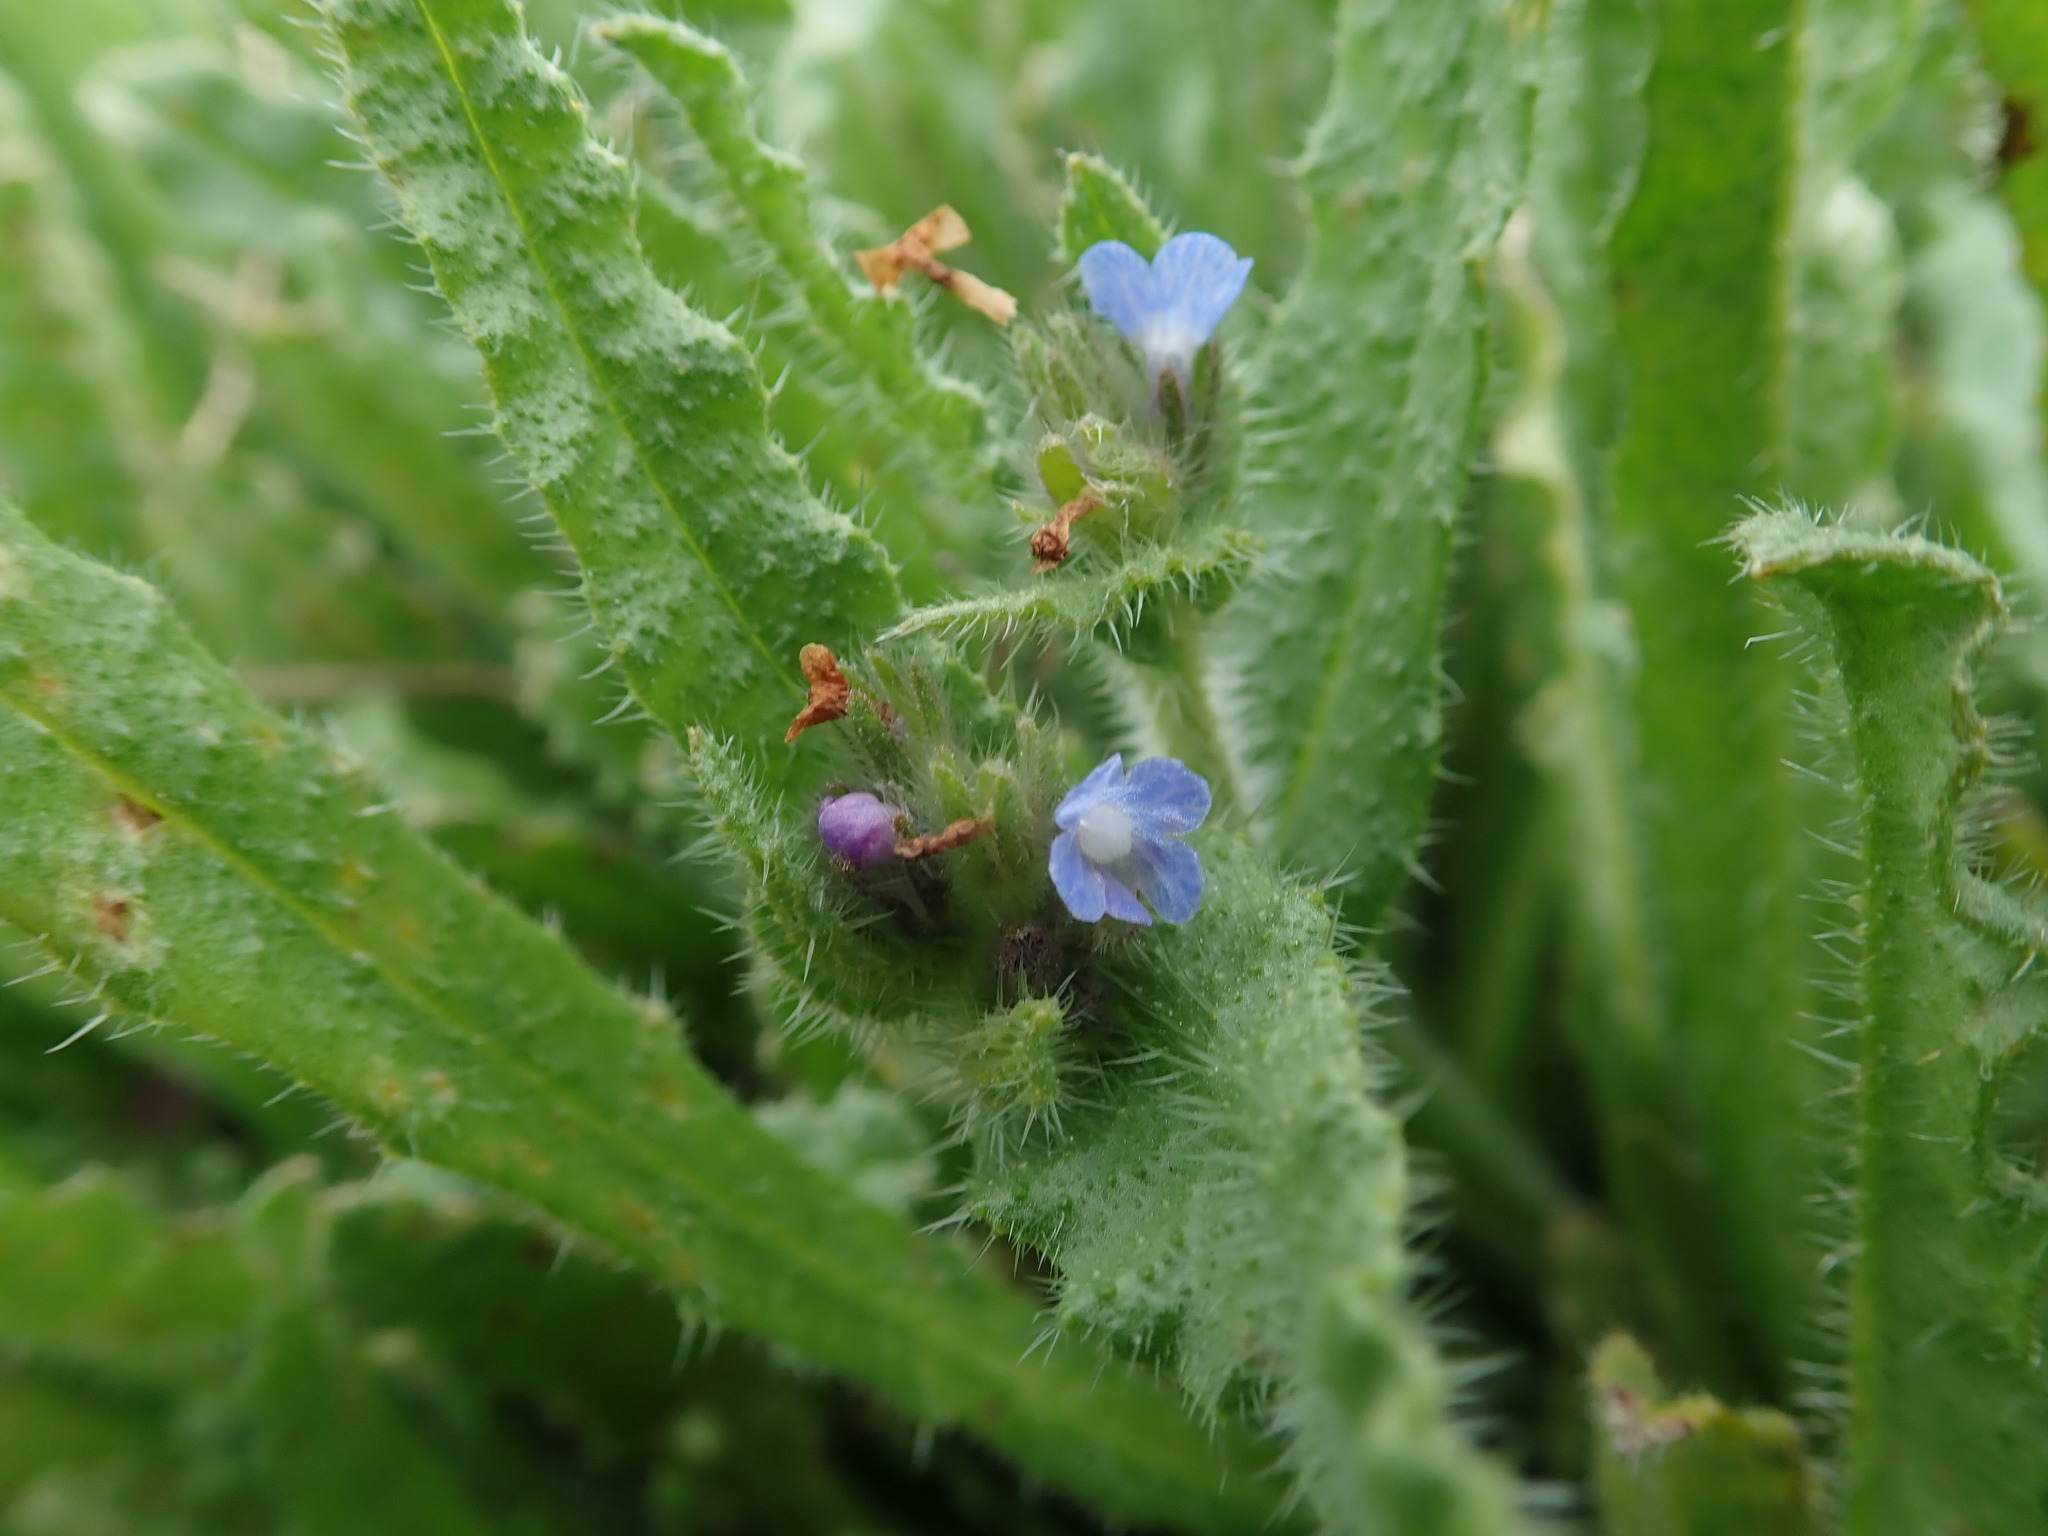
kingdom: Plantae
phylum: Tracheophyta
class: Magnoliopsida
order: Boraginales
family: Boraginaceae
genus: Lycopsis
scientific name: Lycopsis arvensis
